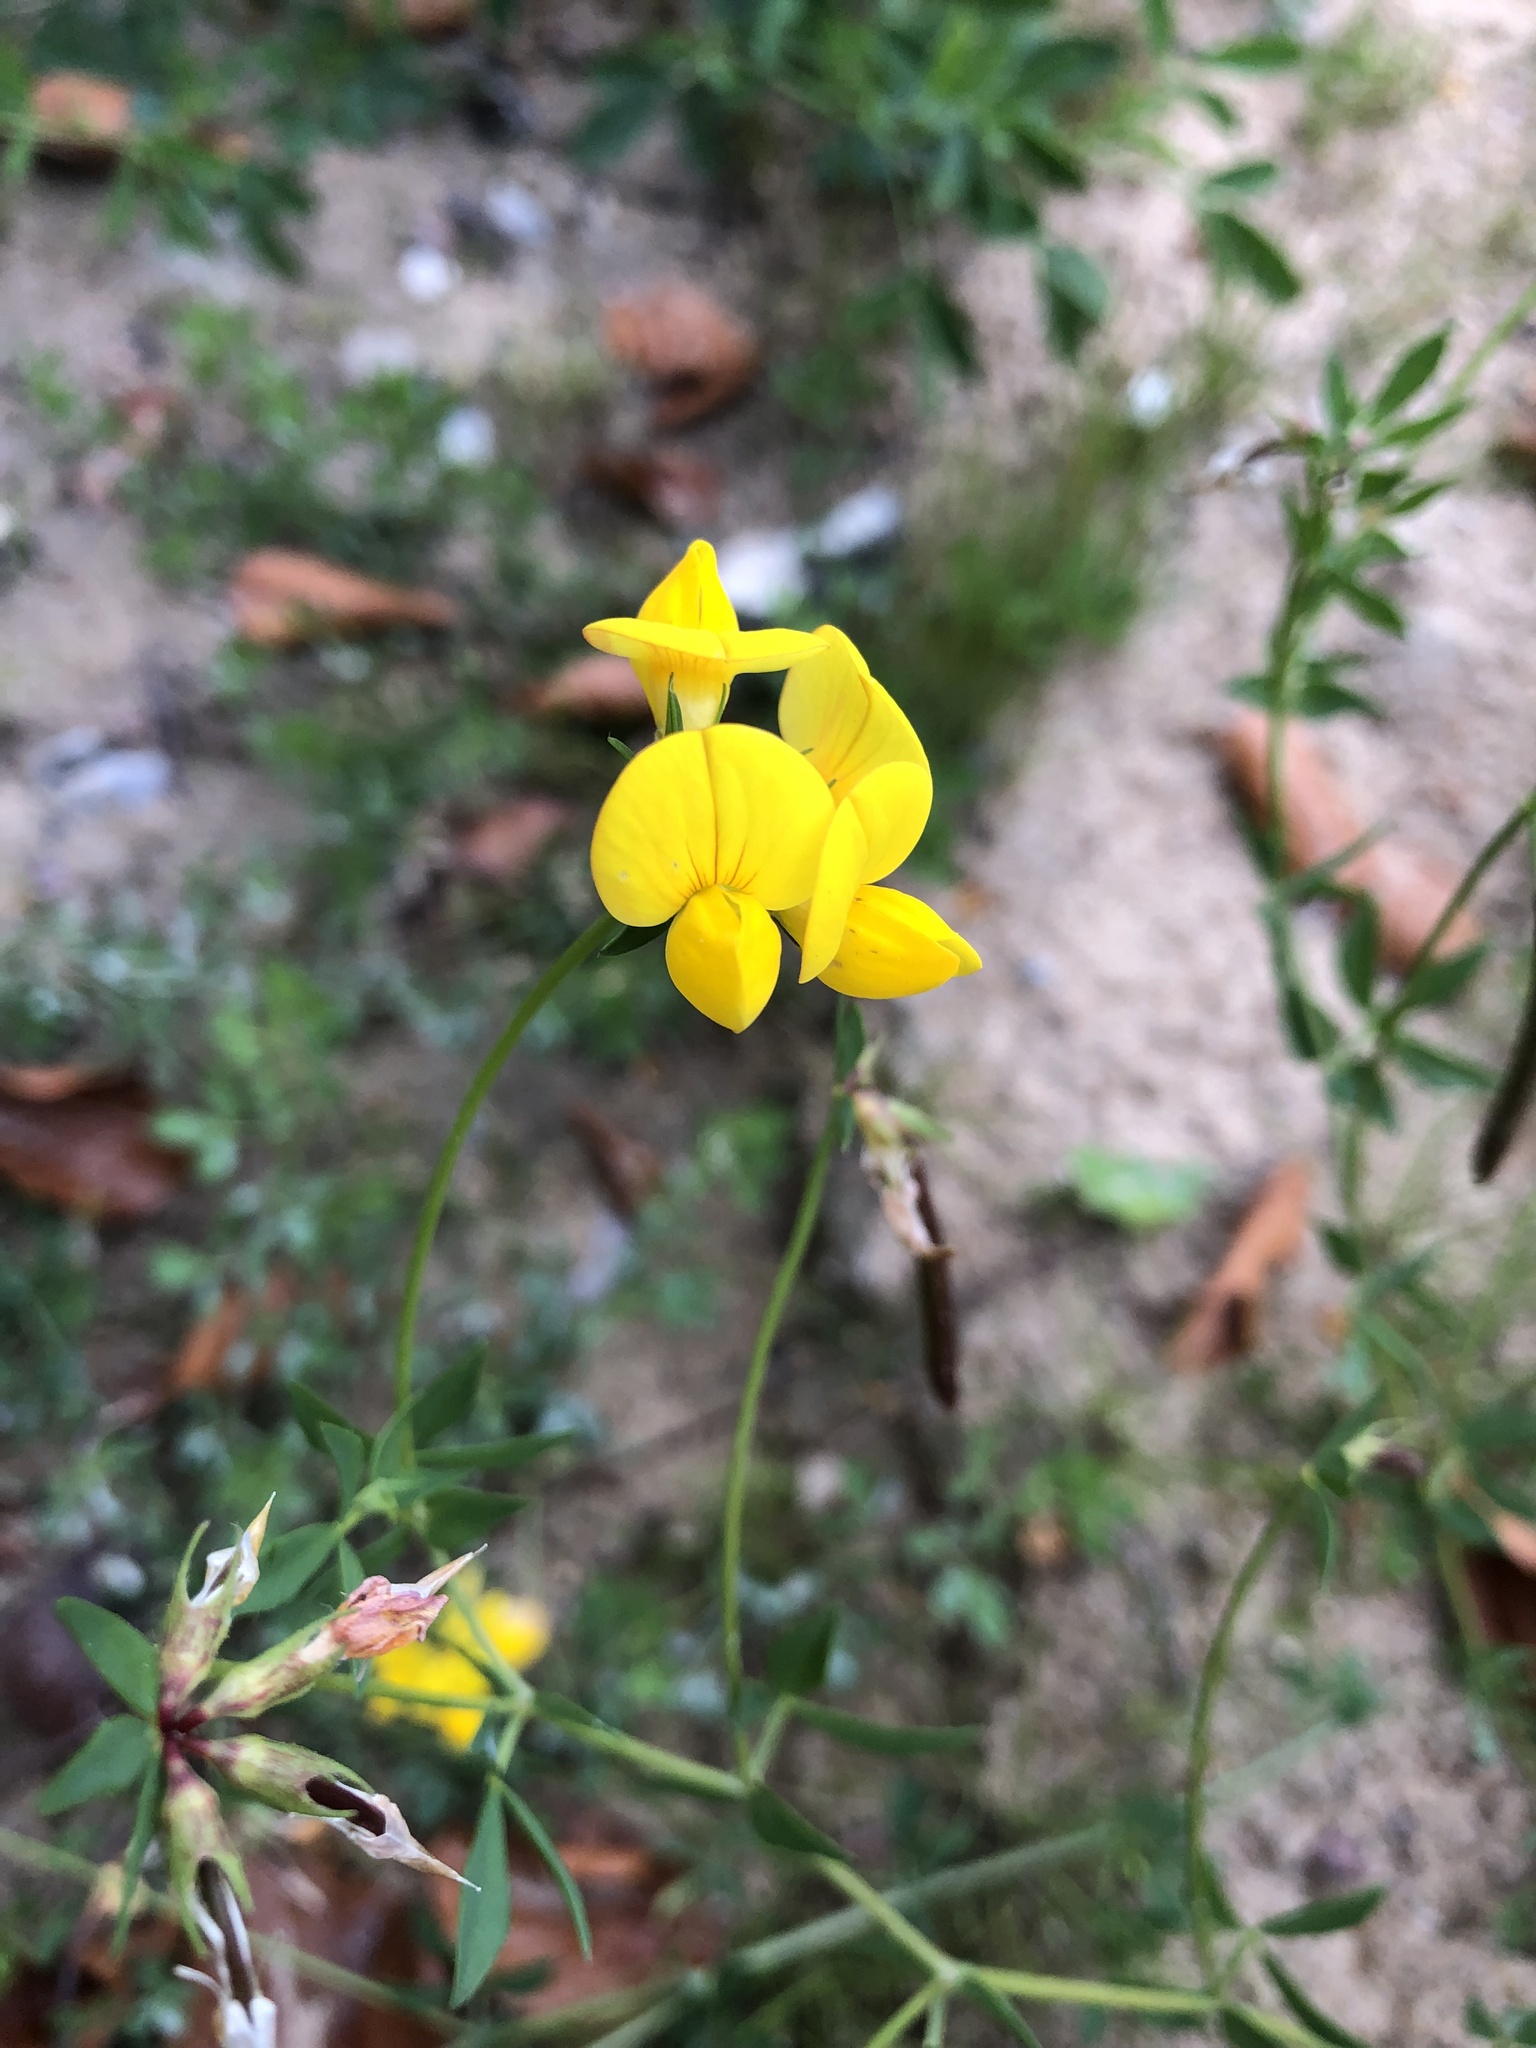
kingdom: Plantae
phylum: Tracheophyta
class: Magnoliopsida
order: Fabales
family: Fabaceae
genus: Lotus
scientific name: Lotus corniculatus
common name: Common bird's-foot-trefoil
